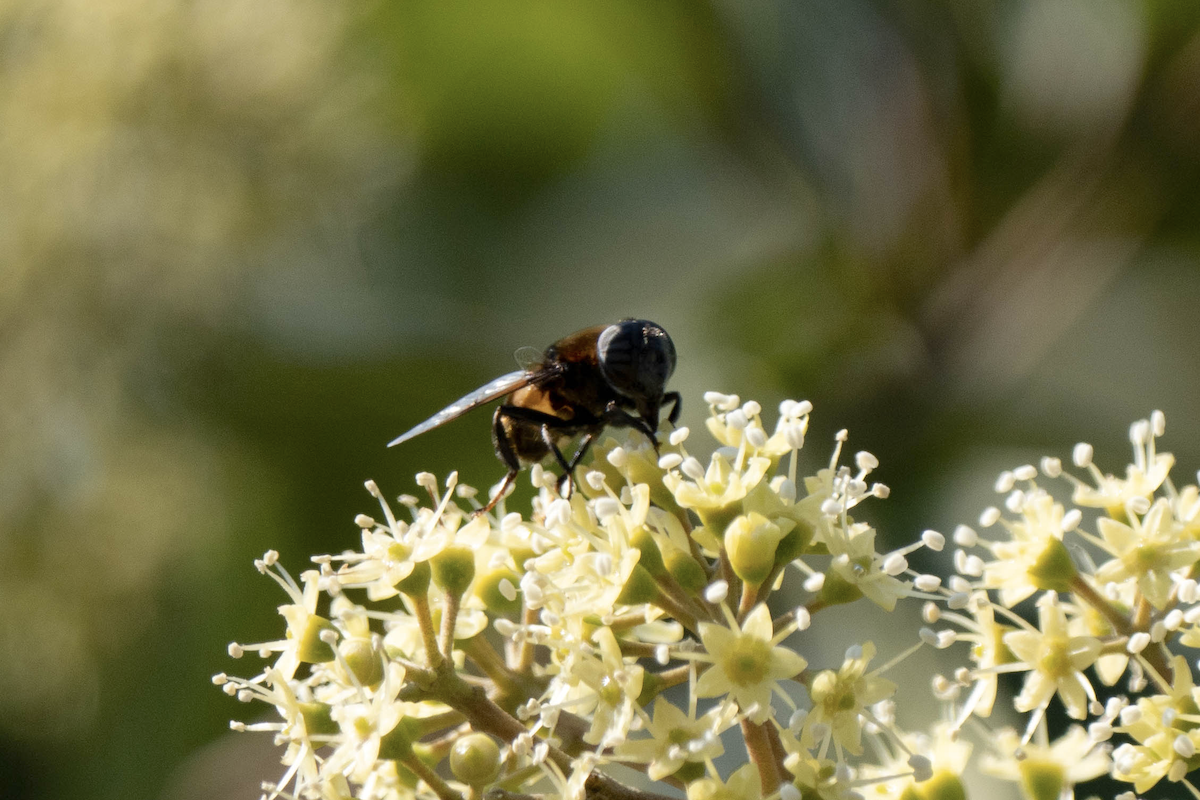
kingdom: Animalia
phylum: Arthropoda
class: Insecta
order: Diptera
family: Syrphidae
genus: Phytomia
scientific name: Phytomia zonata
